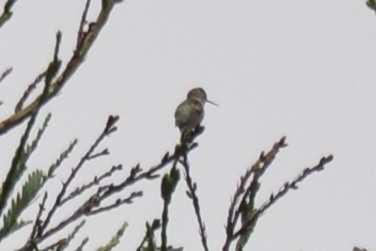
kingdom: Animalia
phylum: Chordata
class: Aves
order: Apodiformes
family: Trochilidae
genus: Calypte
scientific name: Calypte anna
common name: Anna's hummingbird
